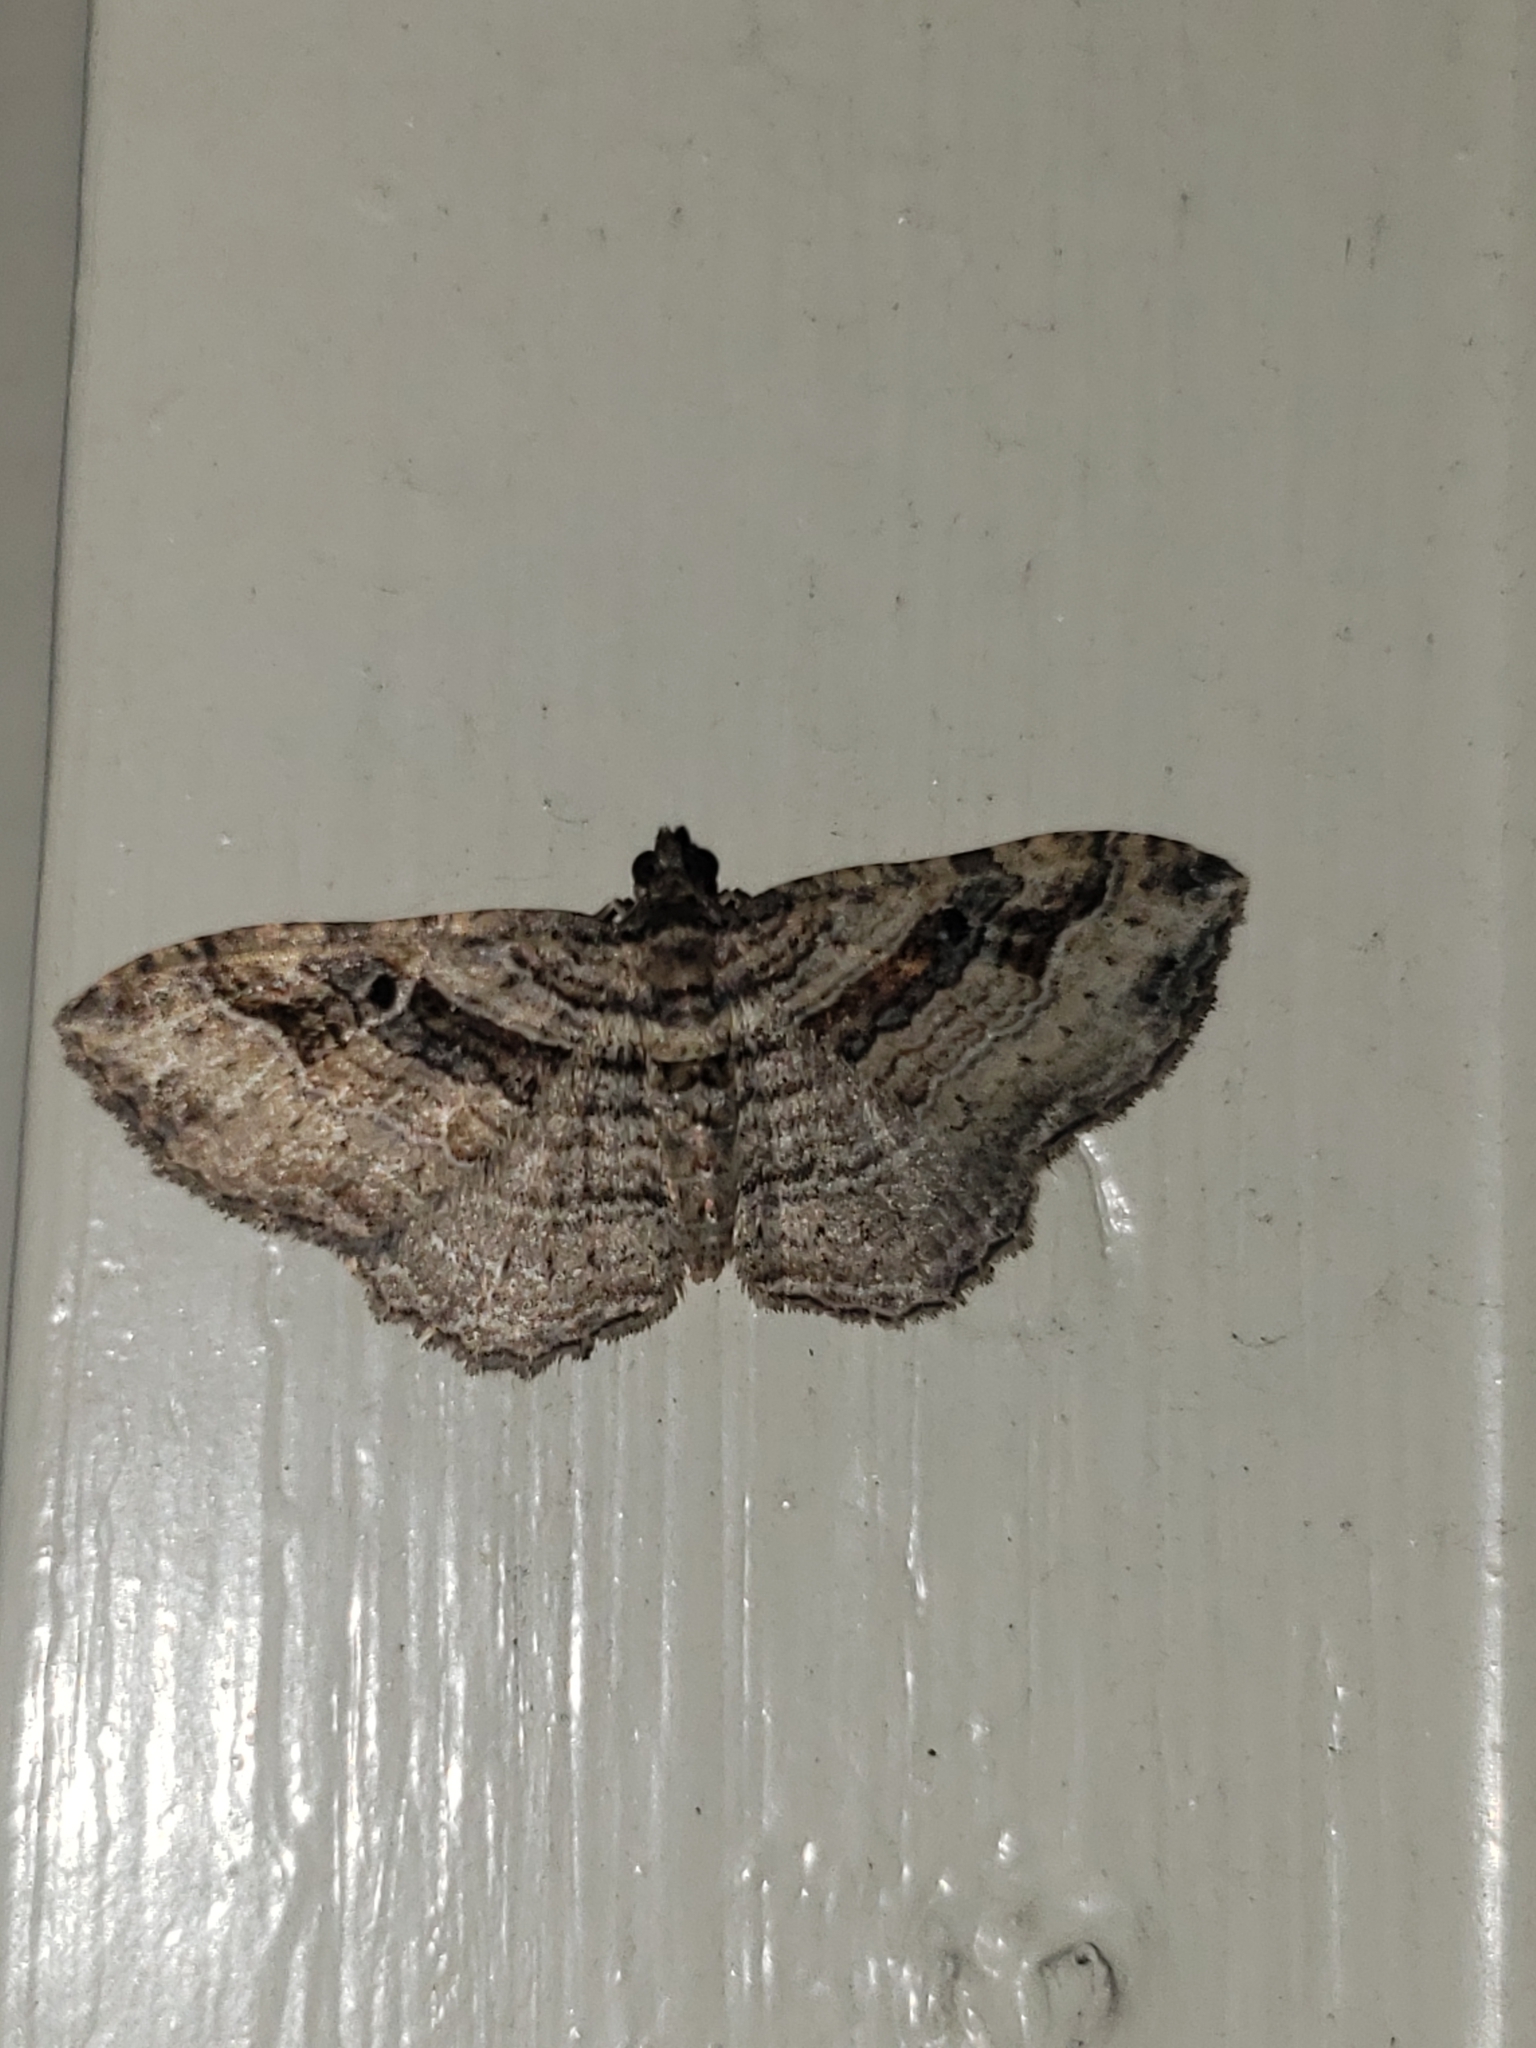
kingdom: Animalia
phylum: Arthropoda
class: Insecta
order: Lepidoptera
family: Geometridae
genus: Costaconvexa
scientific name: Costaconvexa centrostrigaria
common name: Bent-line carpet
